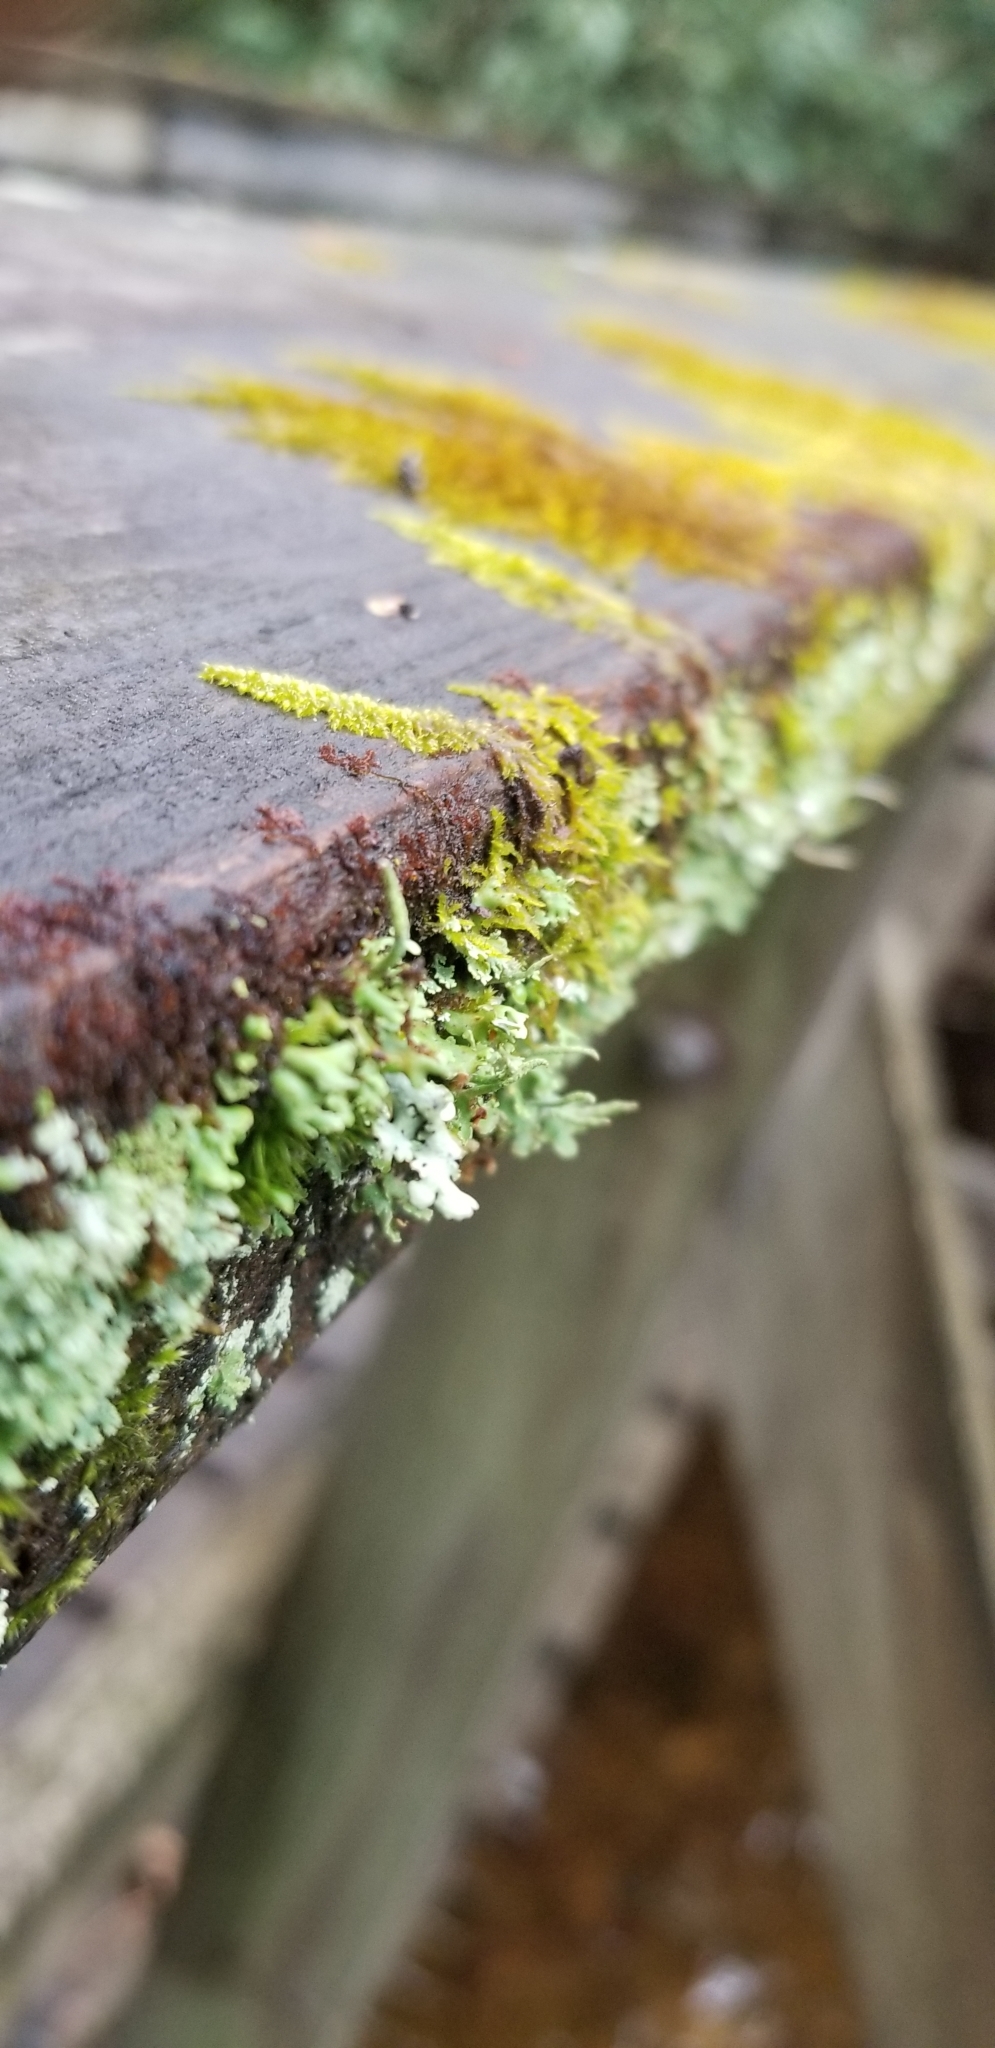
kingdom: Fungi
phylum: Ascomycota
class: Lecanoromycetes
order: Lecanorales
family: Cladoniaceae
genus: Cladonia
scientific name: Cladonia coniocraea
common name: Common powderhorn
